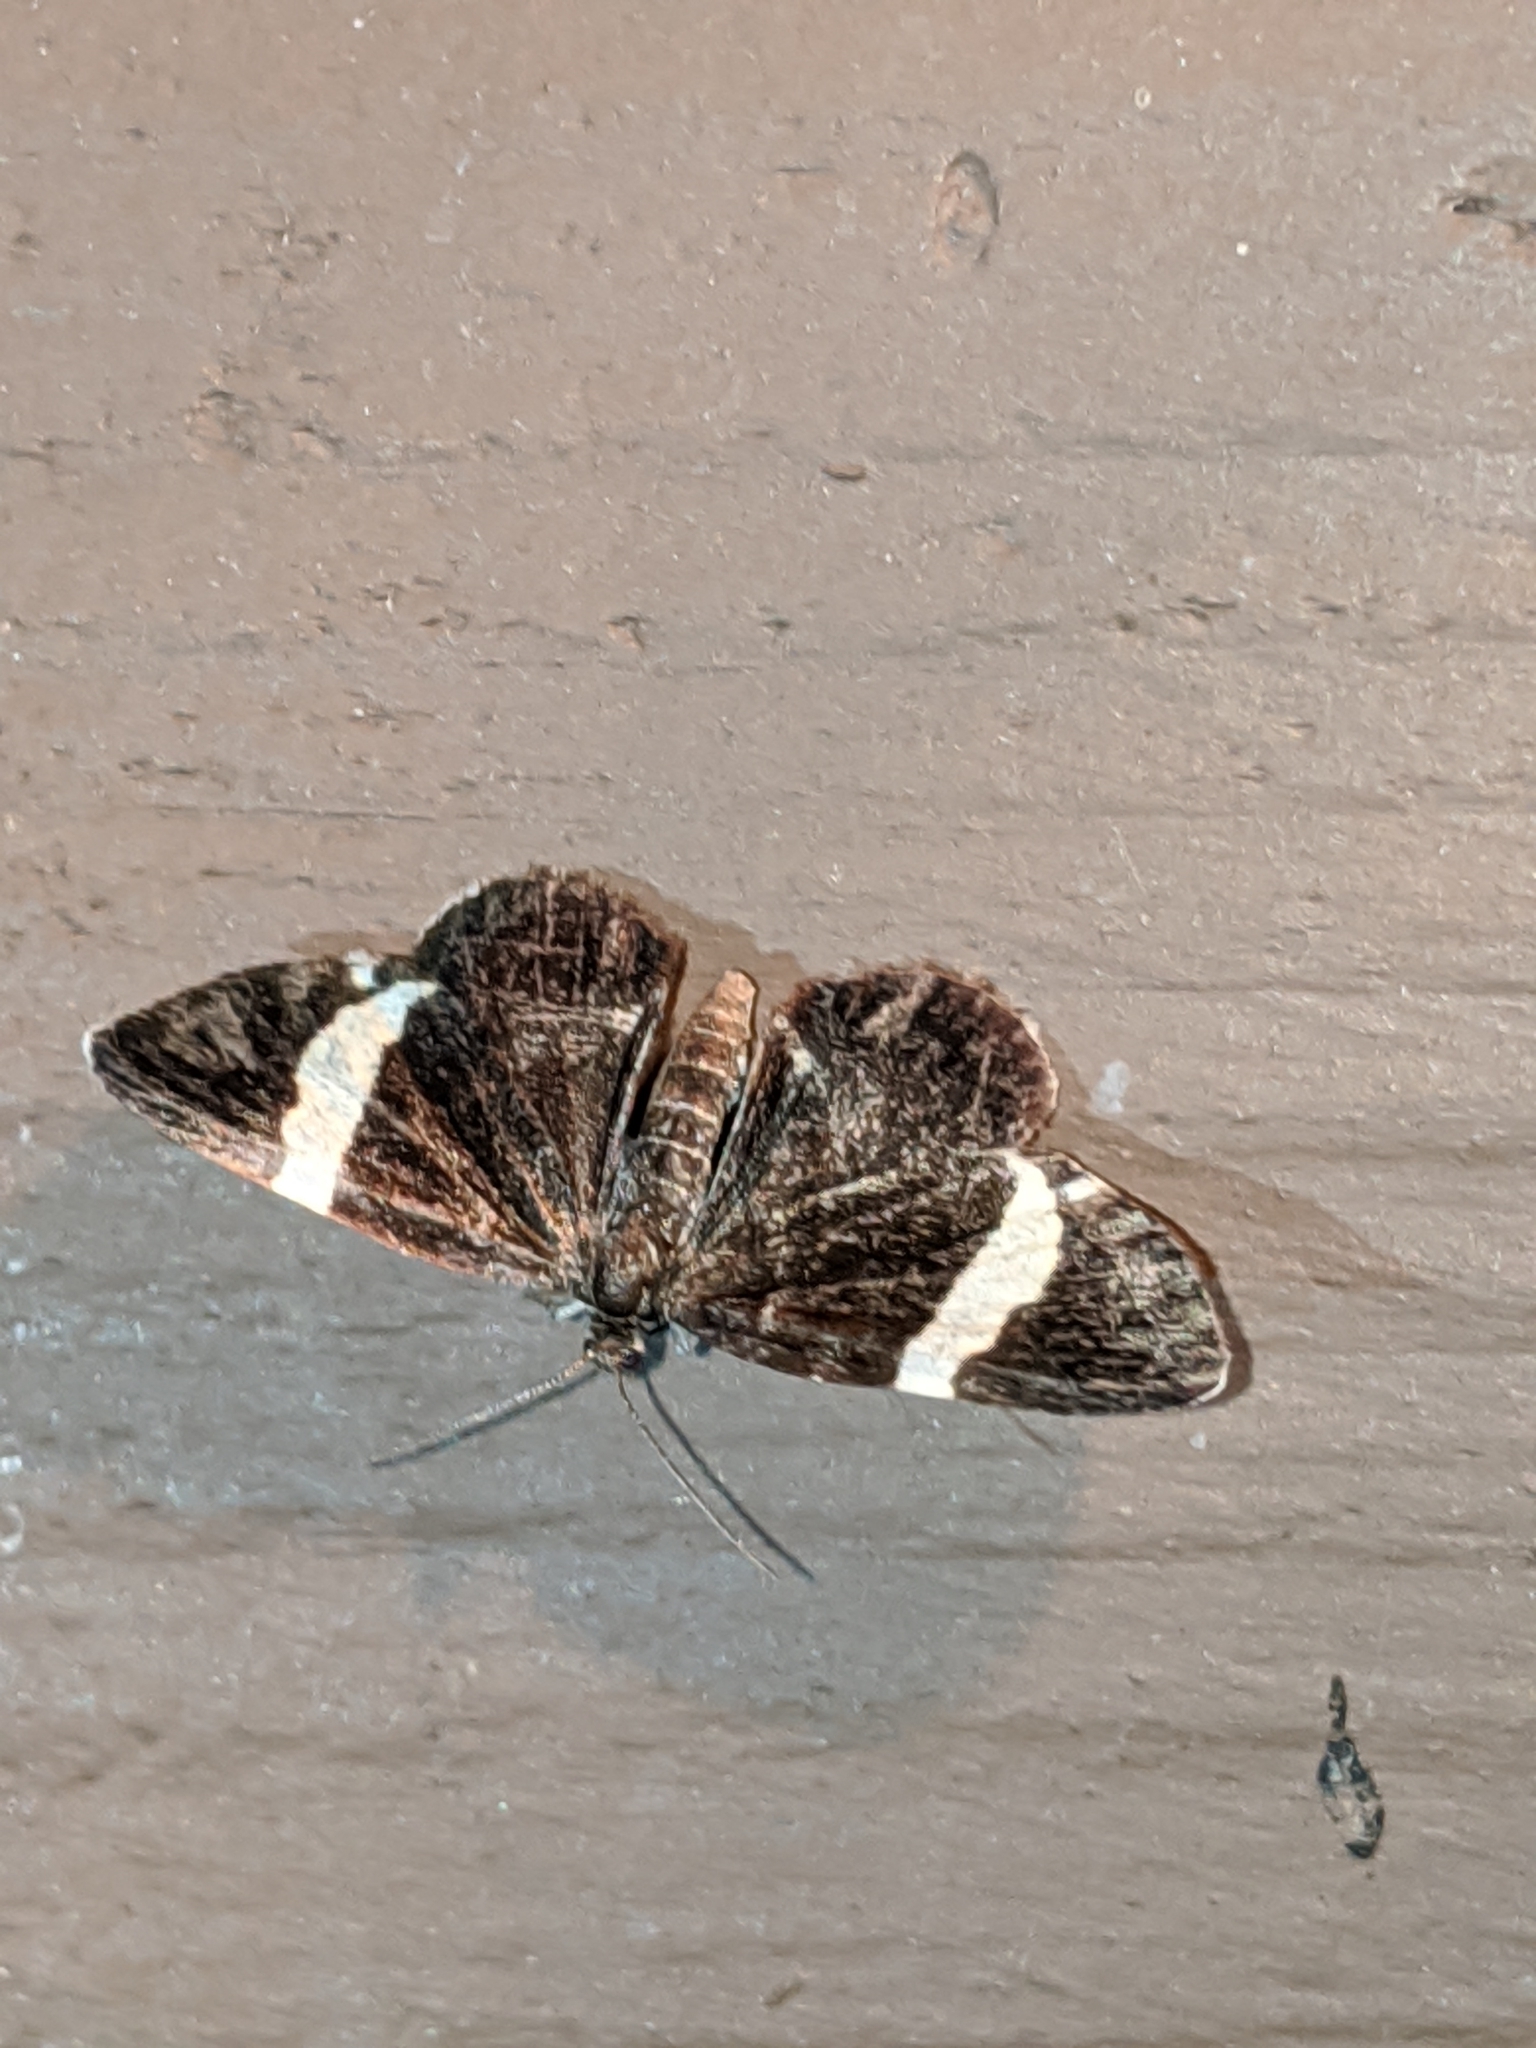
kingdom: Animalia
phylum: Arthropoda
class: Insecta
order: Lepidoptera
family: Geometridae
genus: Trichodezia
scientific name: Trichodezia albovittata
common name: White striped black
